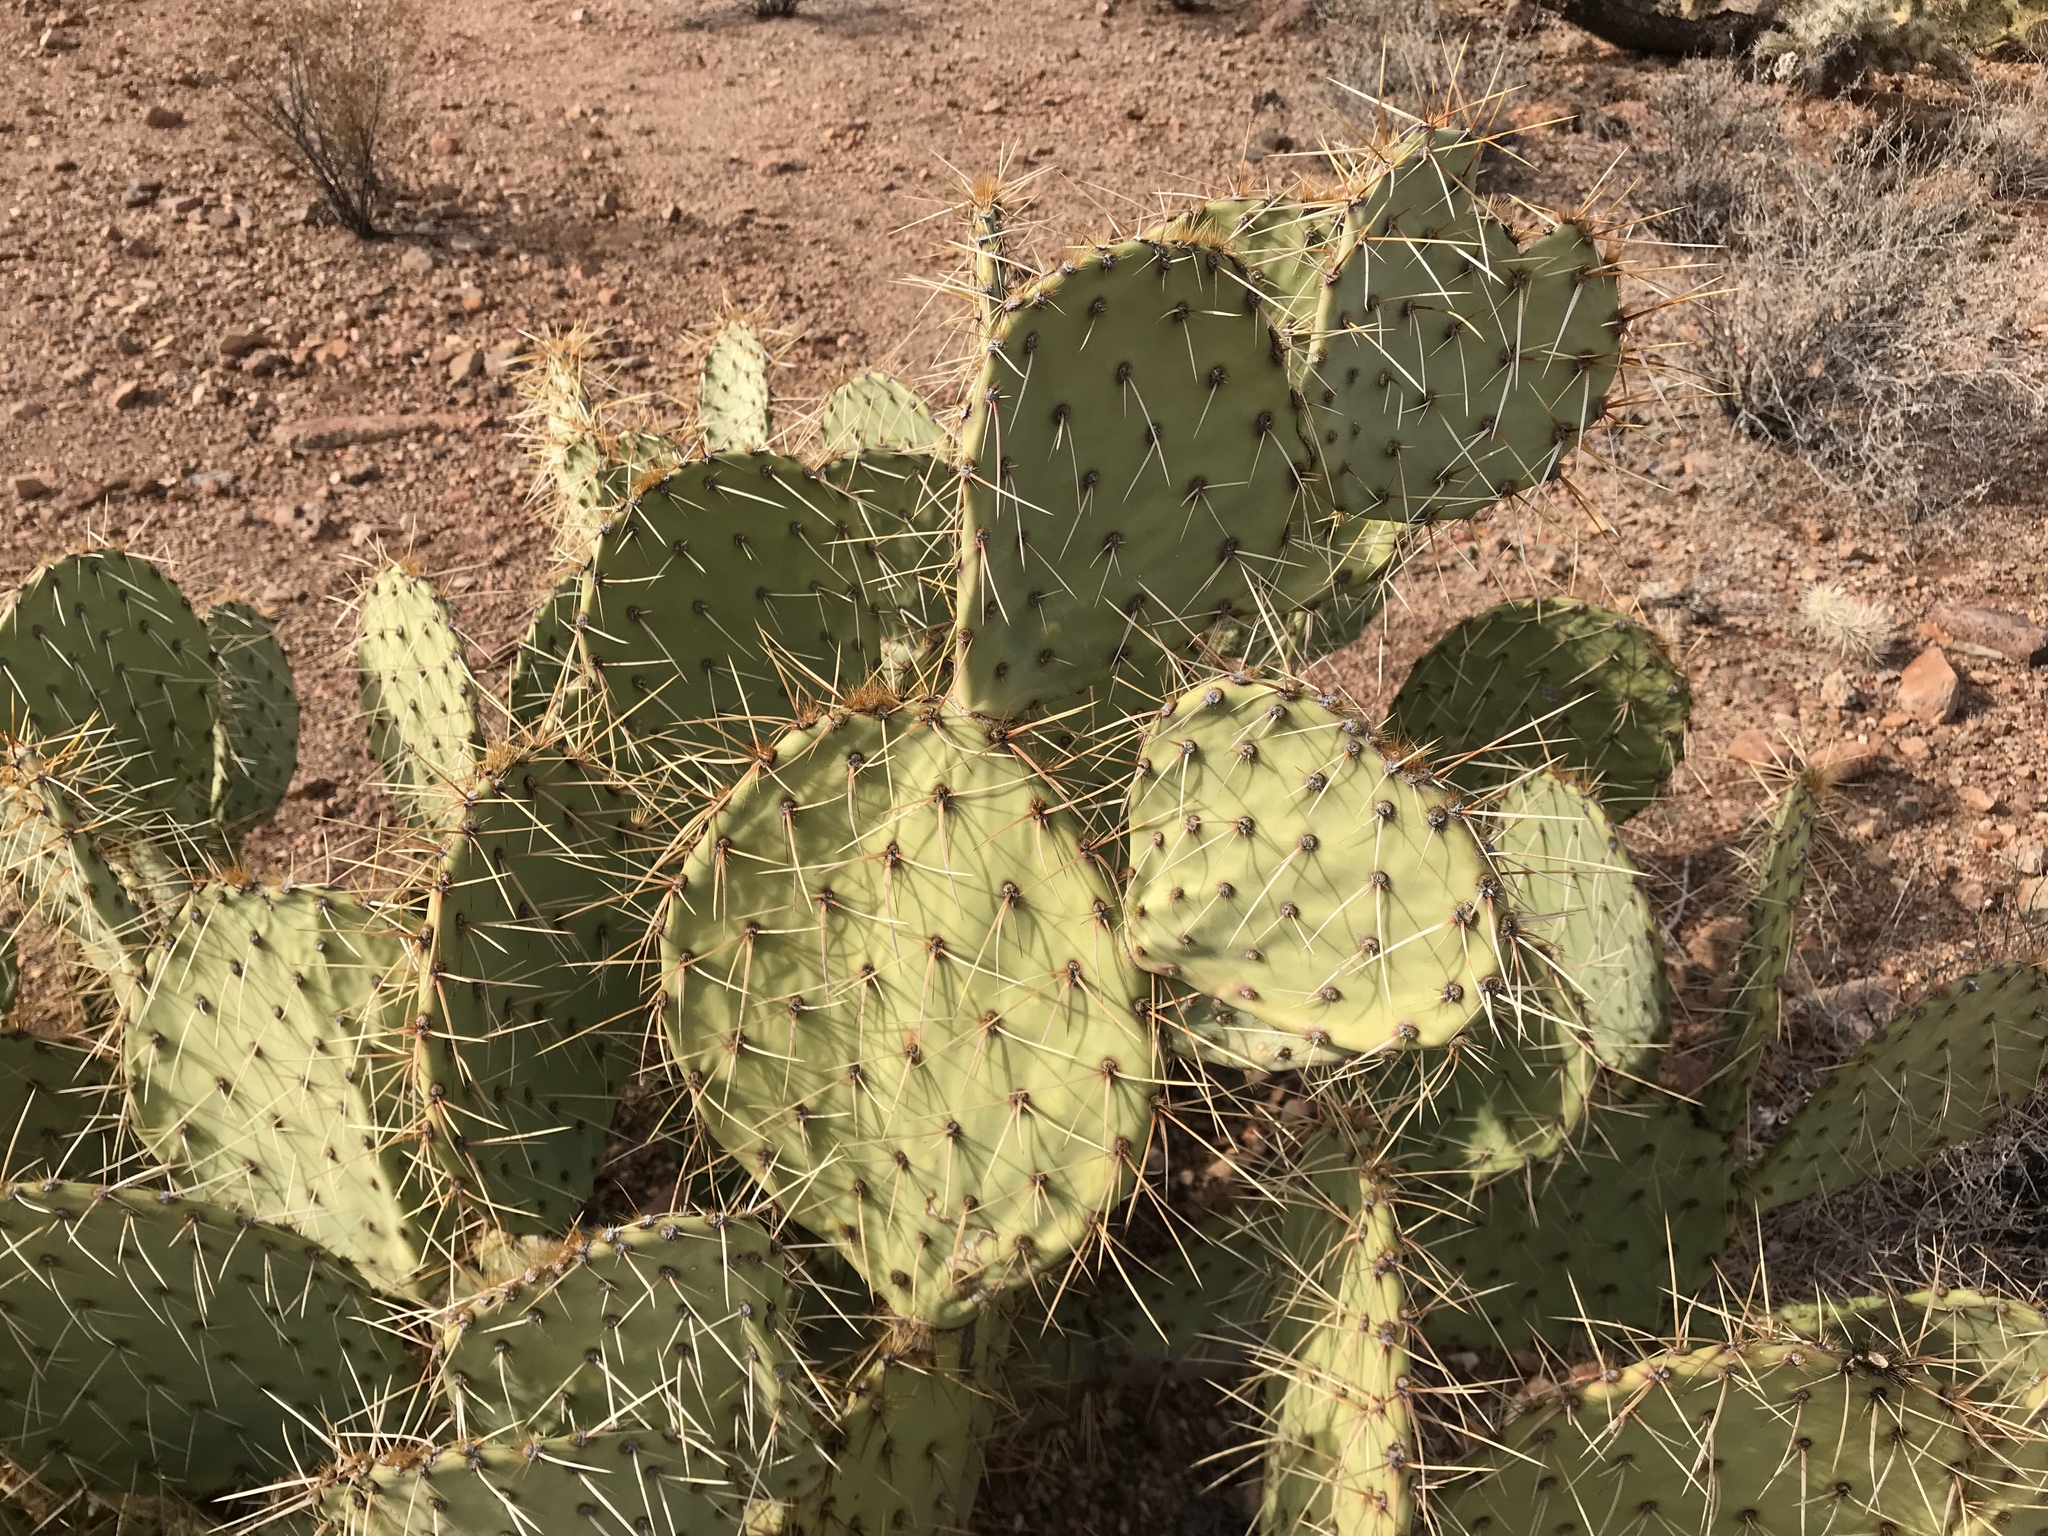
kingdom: Plantae
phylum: Tracheophyta
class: Magnoliopsida
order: Caryophyllales
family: Cactaceae
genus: Opuntia
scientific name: Opuntia engelmannii
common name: Cactus-apple
